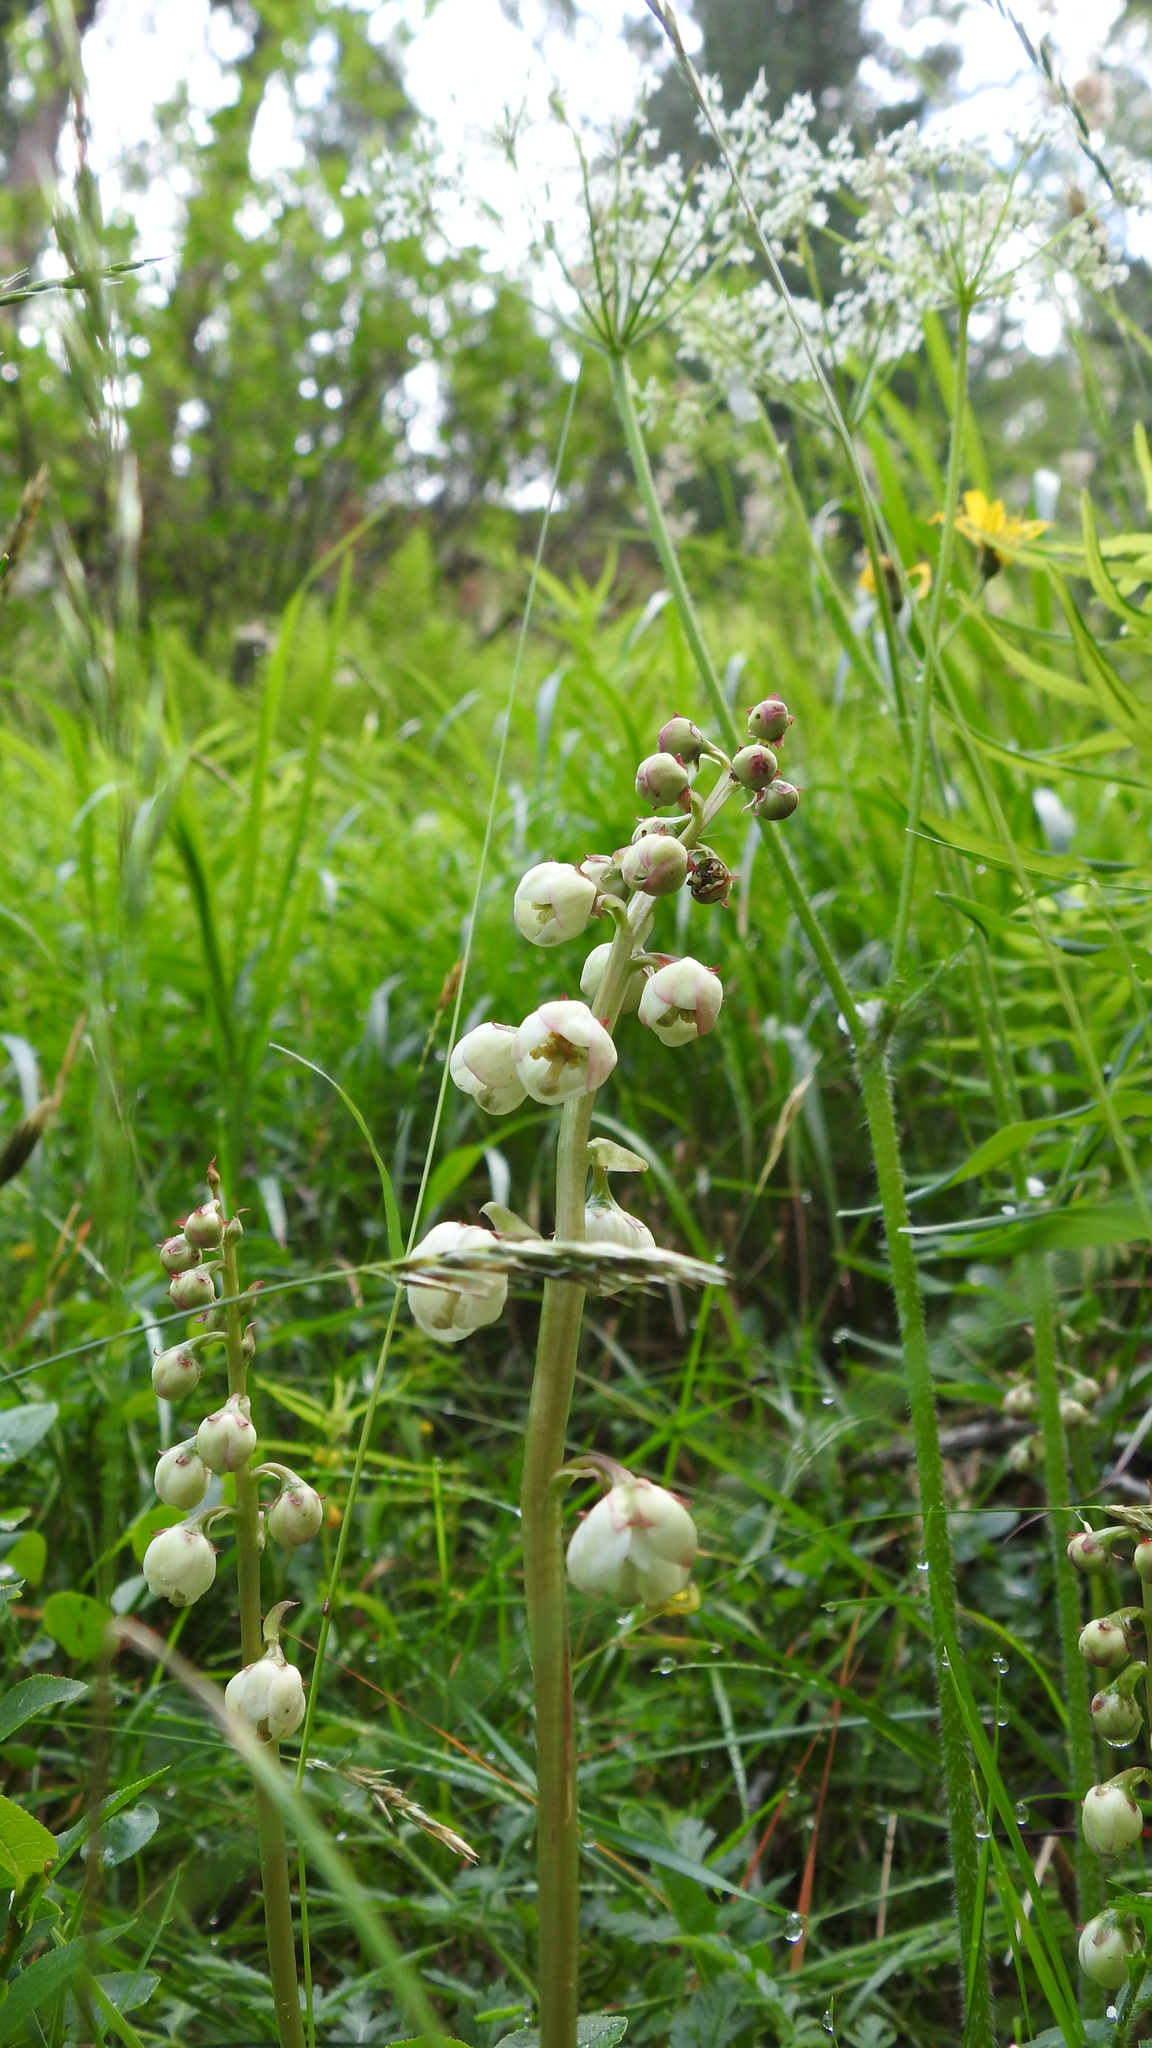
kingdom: Plantae
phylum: Tracheophyta
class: Magnoliopsida
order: Ericales
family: Ericaceae
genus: Pyrola
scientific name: Pyrola media
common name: Intermediate wintergreen
